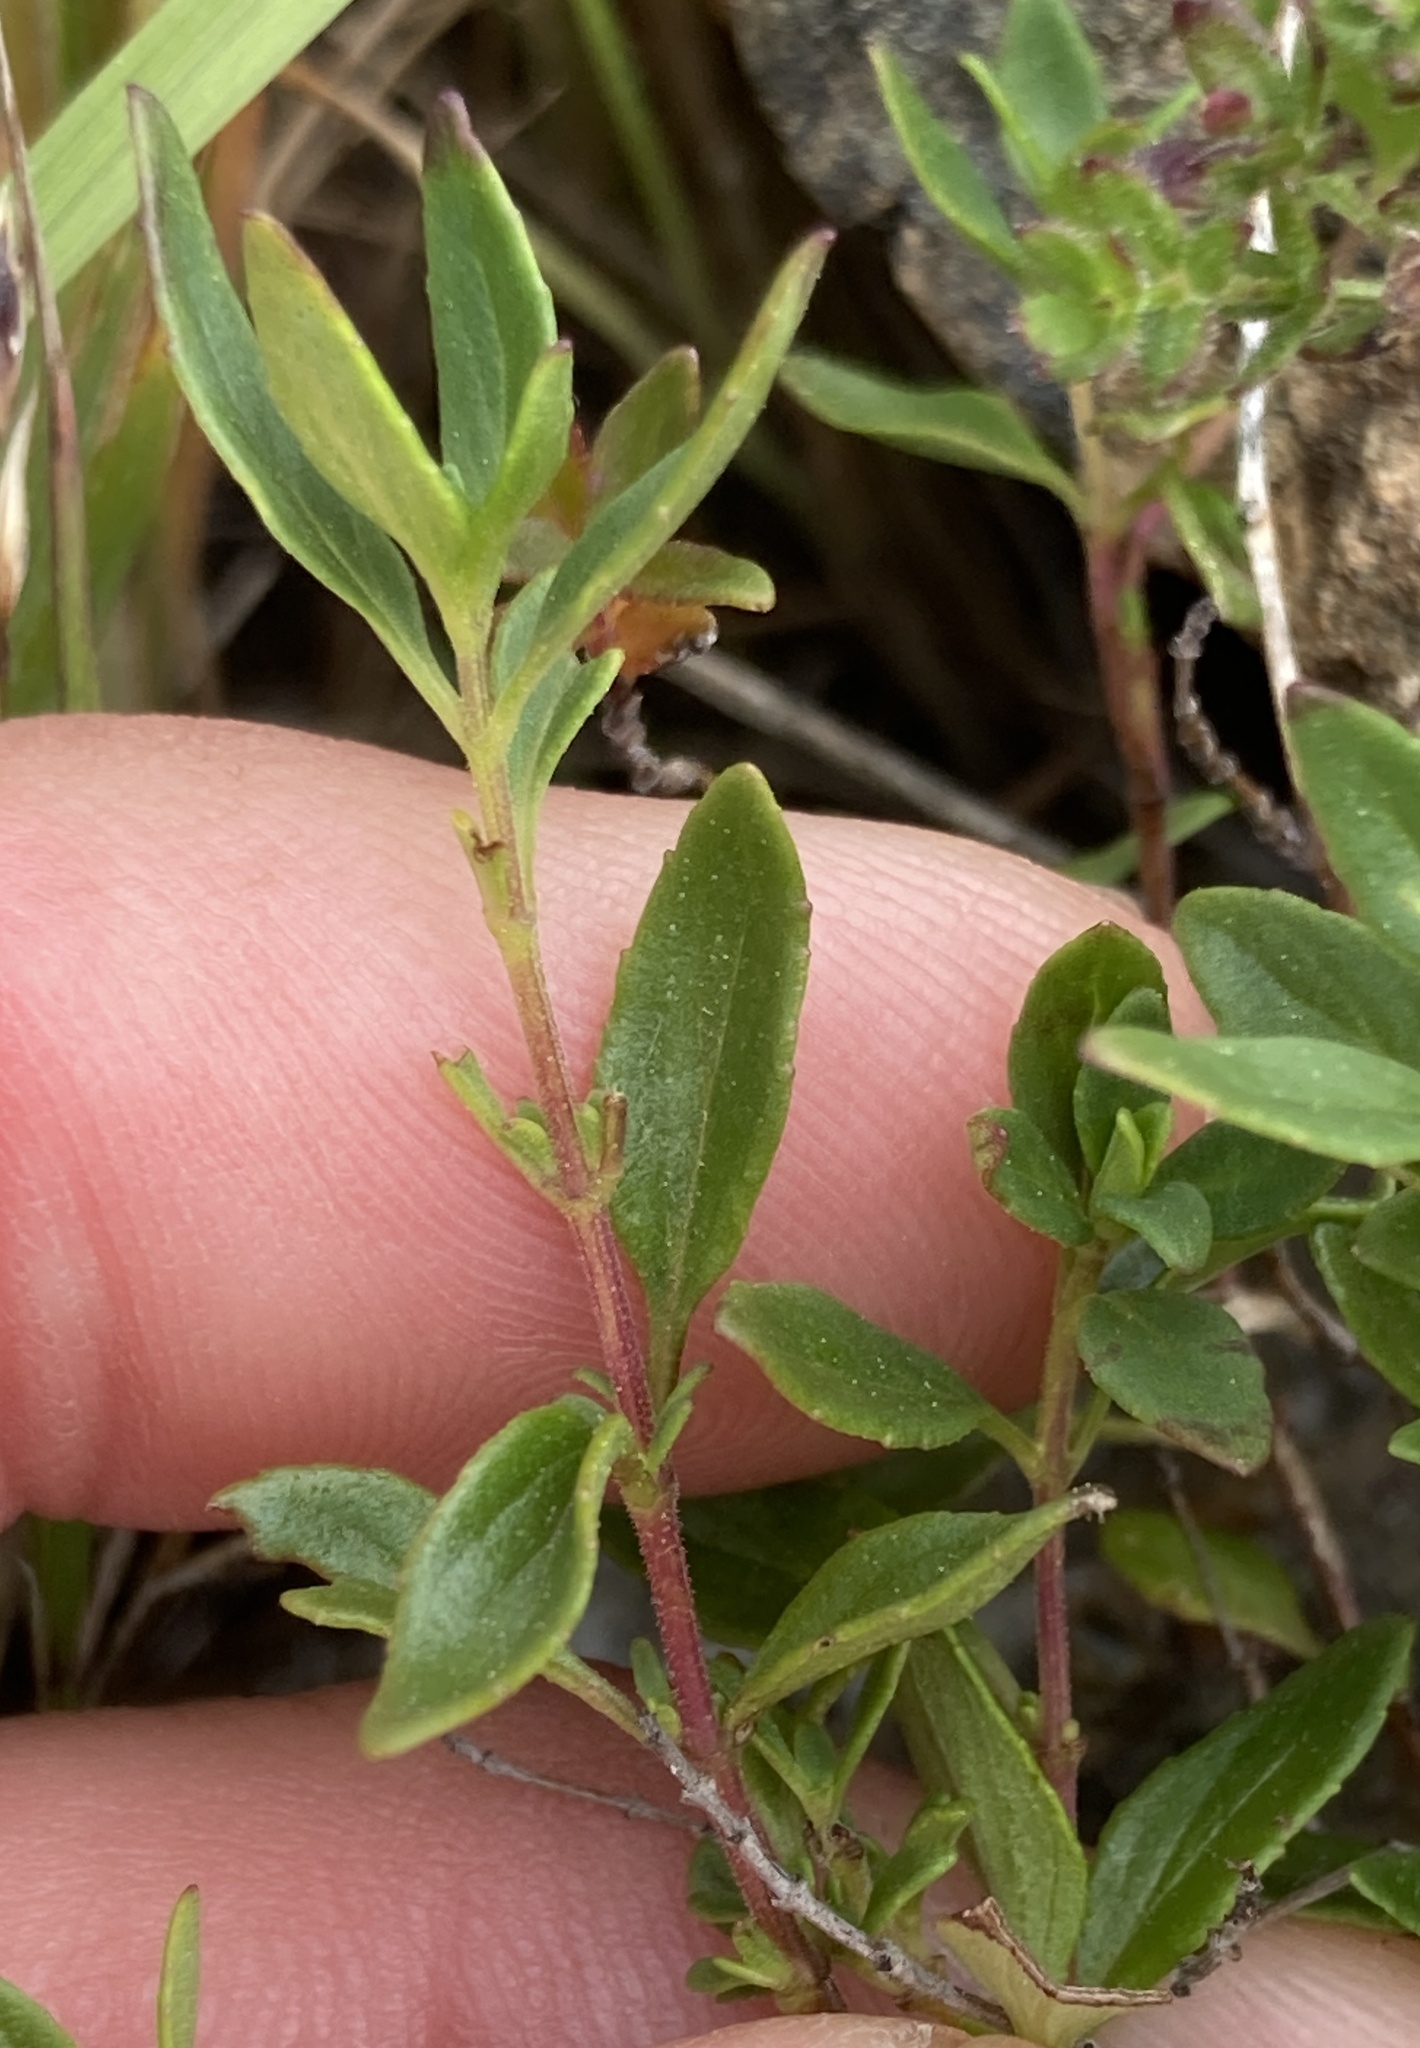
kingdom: Plantae
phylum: Tracheophyta
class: Magnoliopsida
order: Lamiales
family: Lamiaceae
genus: Monardella
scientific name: Monardella purpurea
